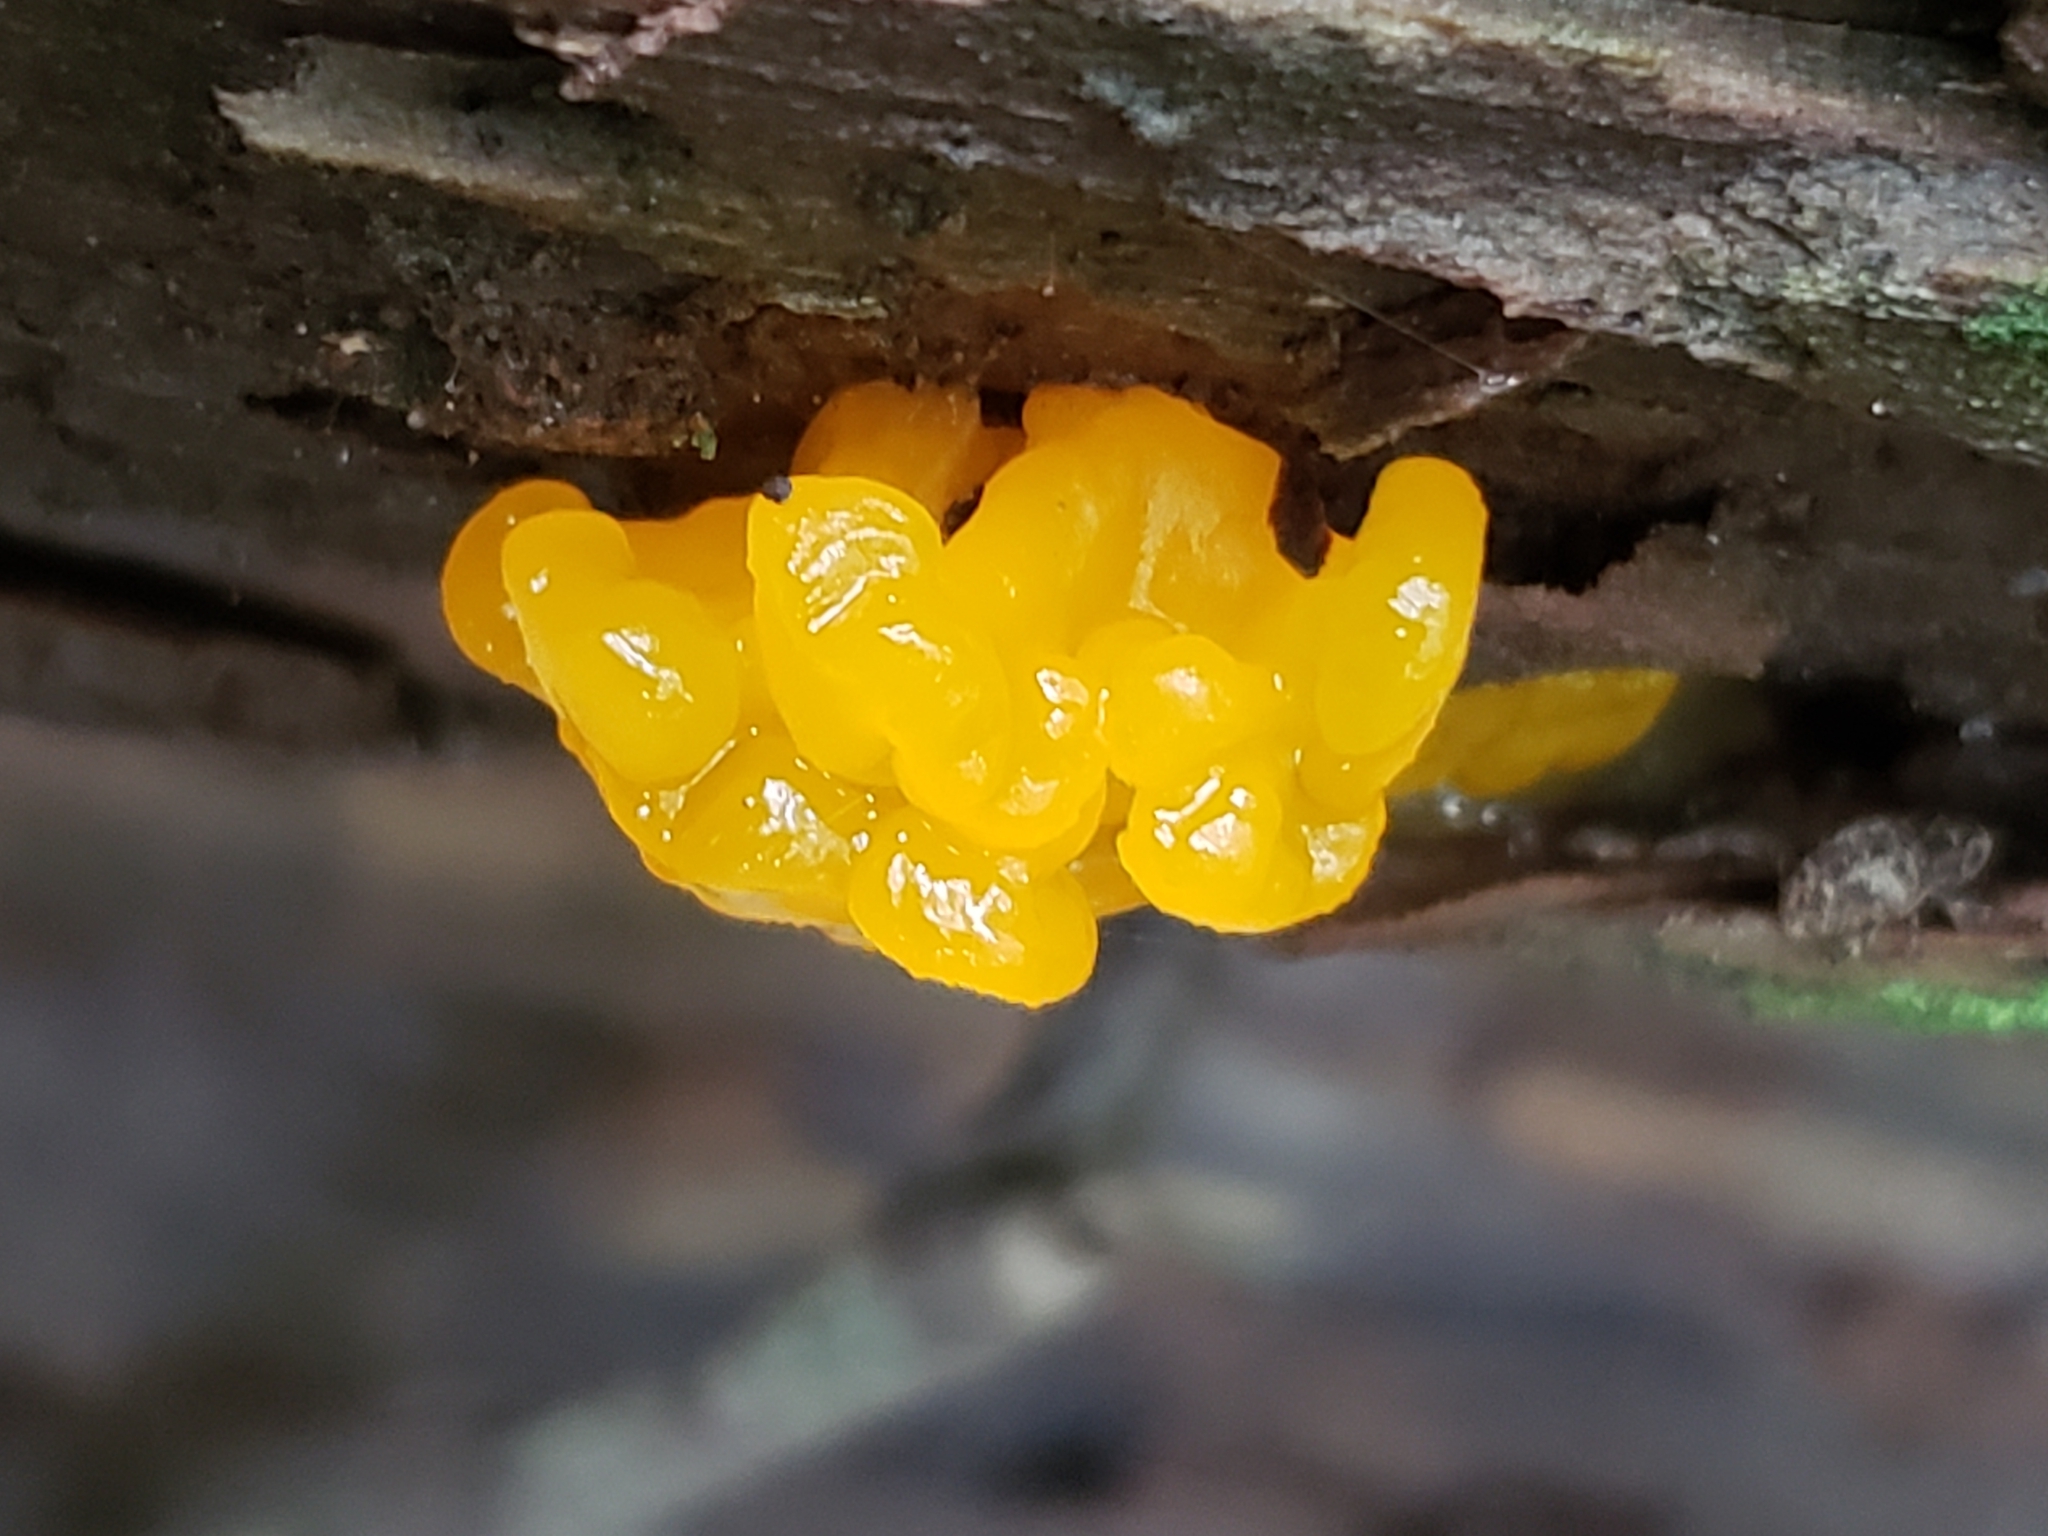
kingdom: Fungi
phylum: Basidiomycota
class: Dacrymycetes
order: Dacrymycetales
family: Dacrymycetaceae
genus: Dacrymyces
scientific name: Dacrymyces chrysospermus
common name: Orange jelly spot
